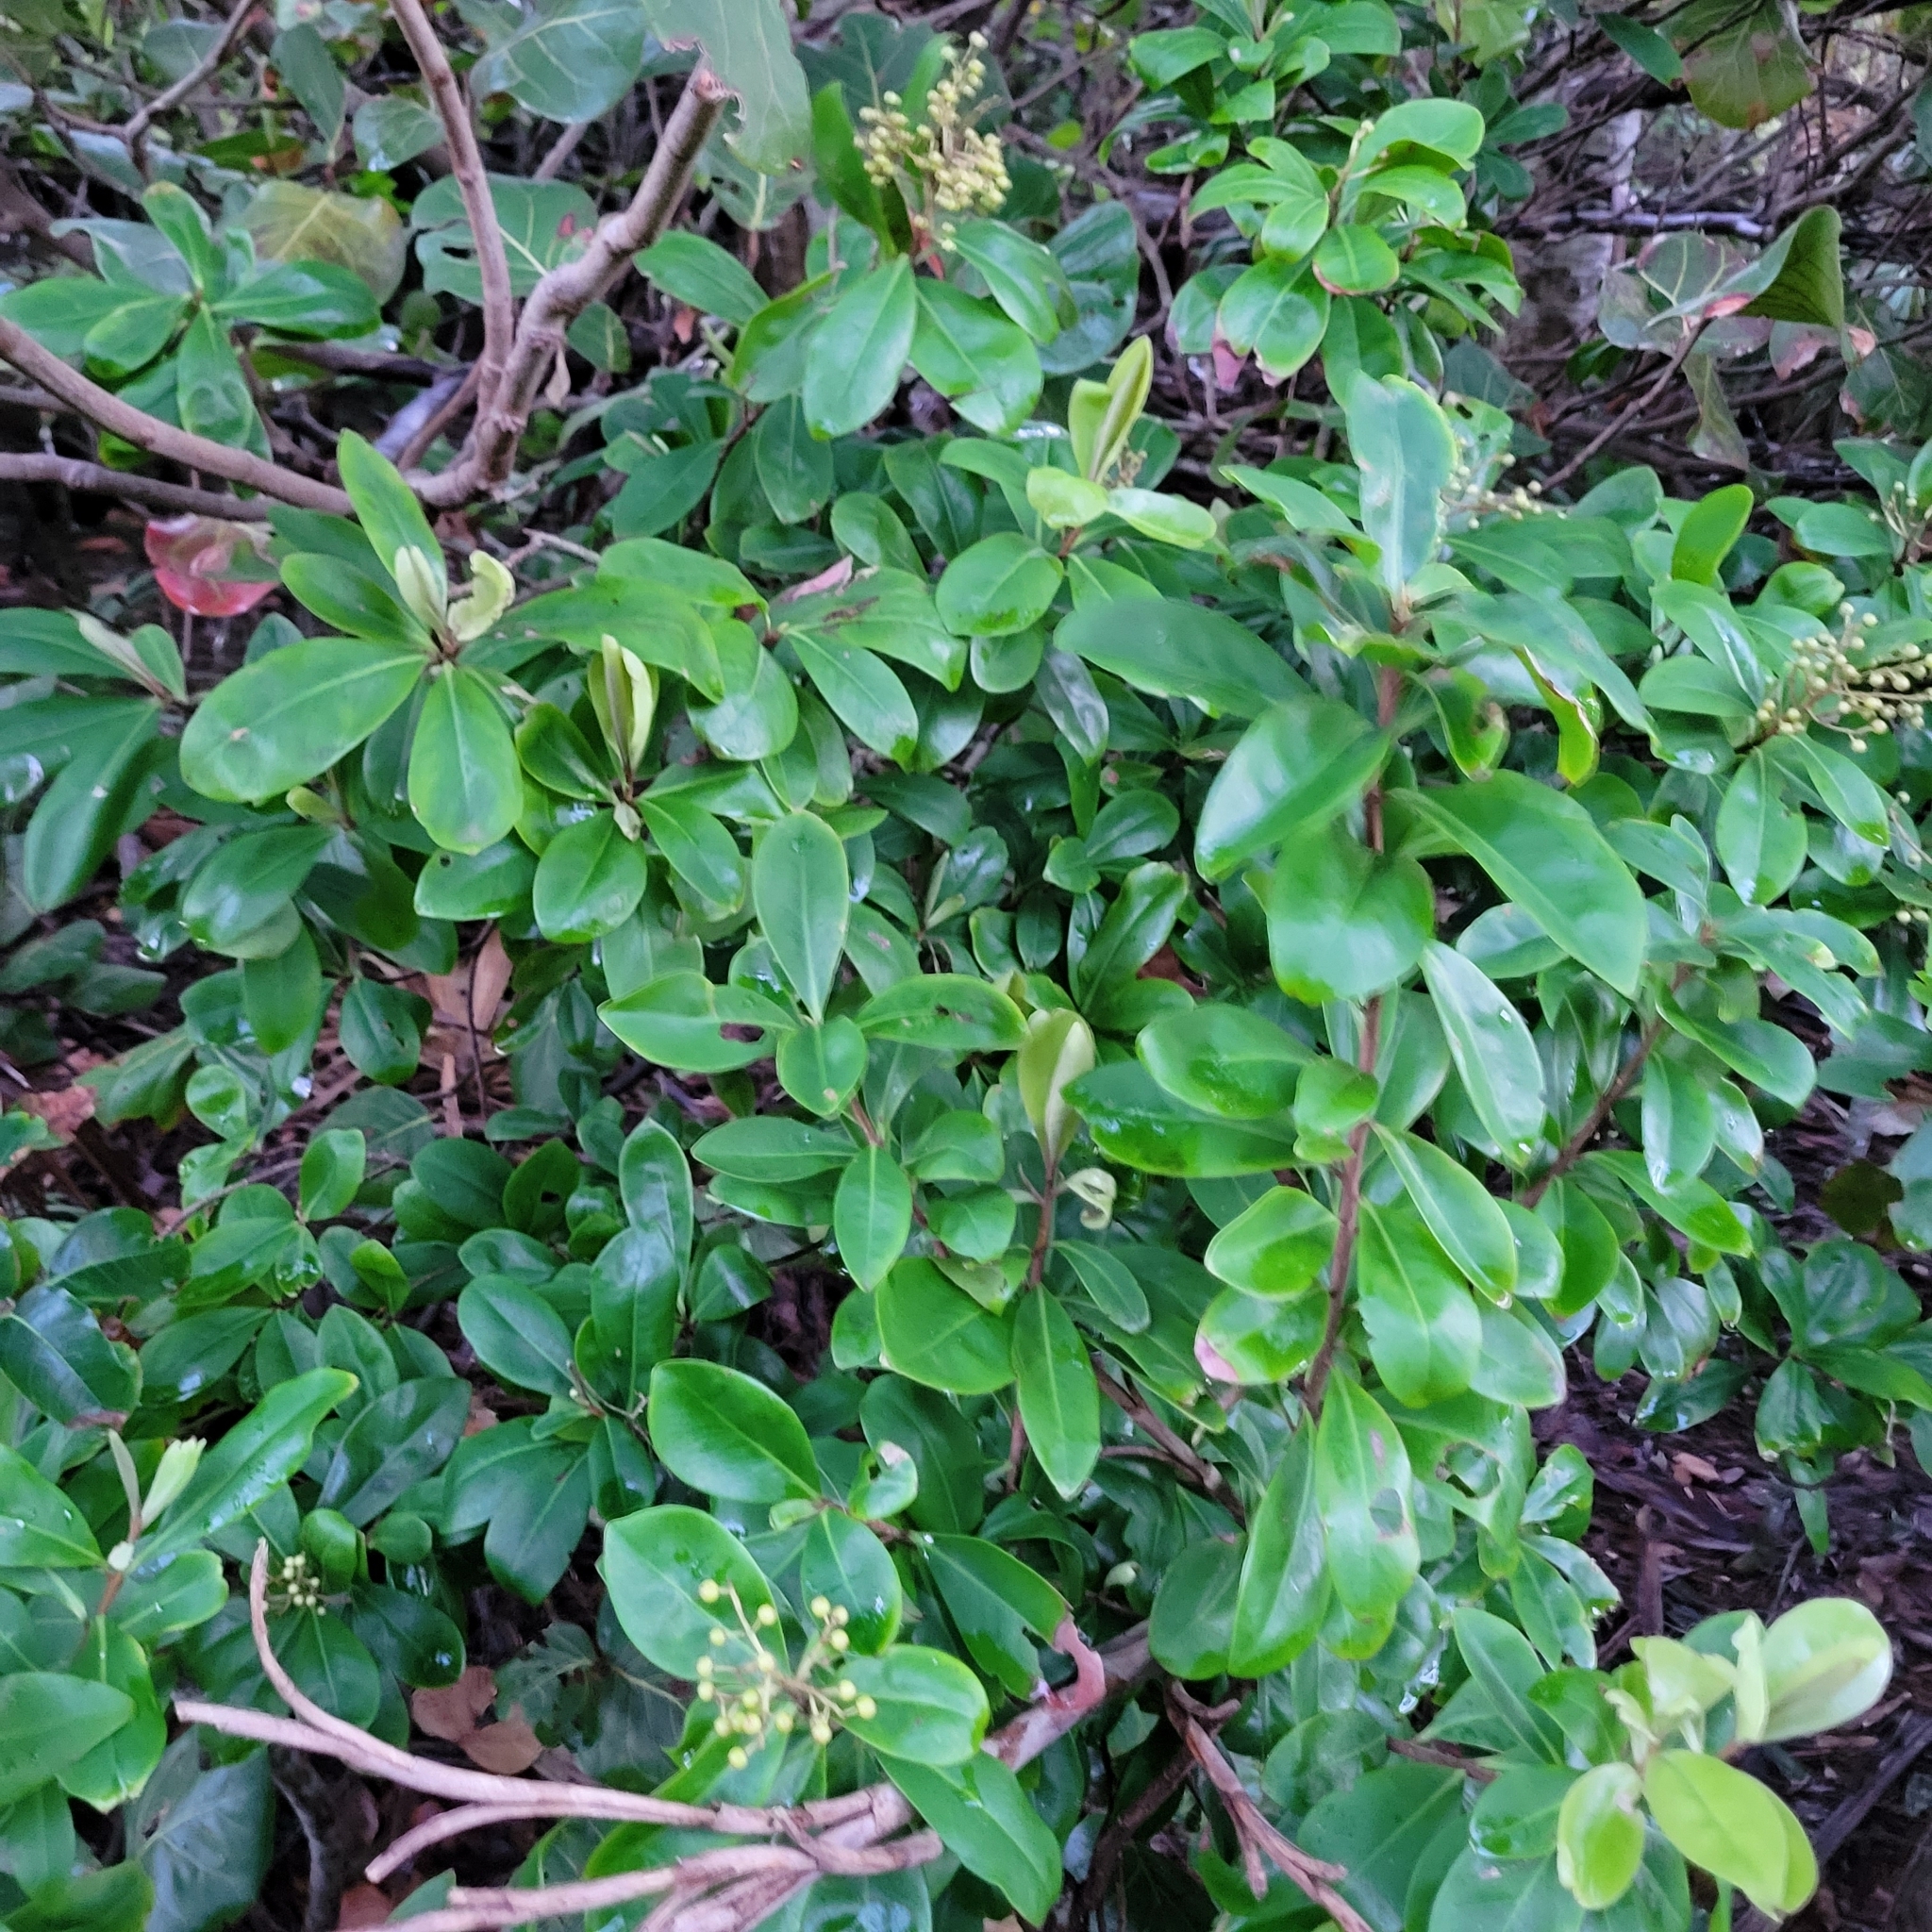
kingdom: Plantae
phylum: Tracheophyta
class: Magnoliopsida
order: Ericales
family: Primulaceae
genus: Ardisia
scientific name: Ardisia escallonioides
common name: Island marlberry
